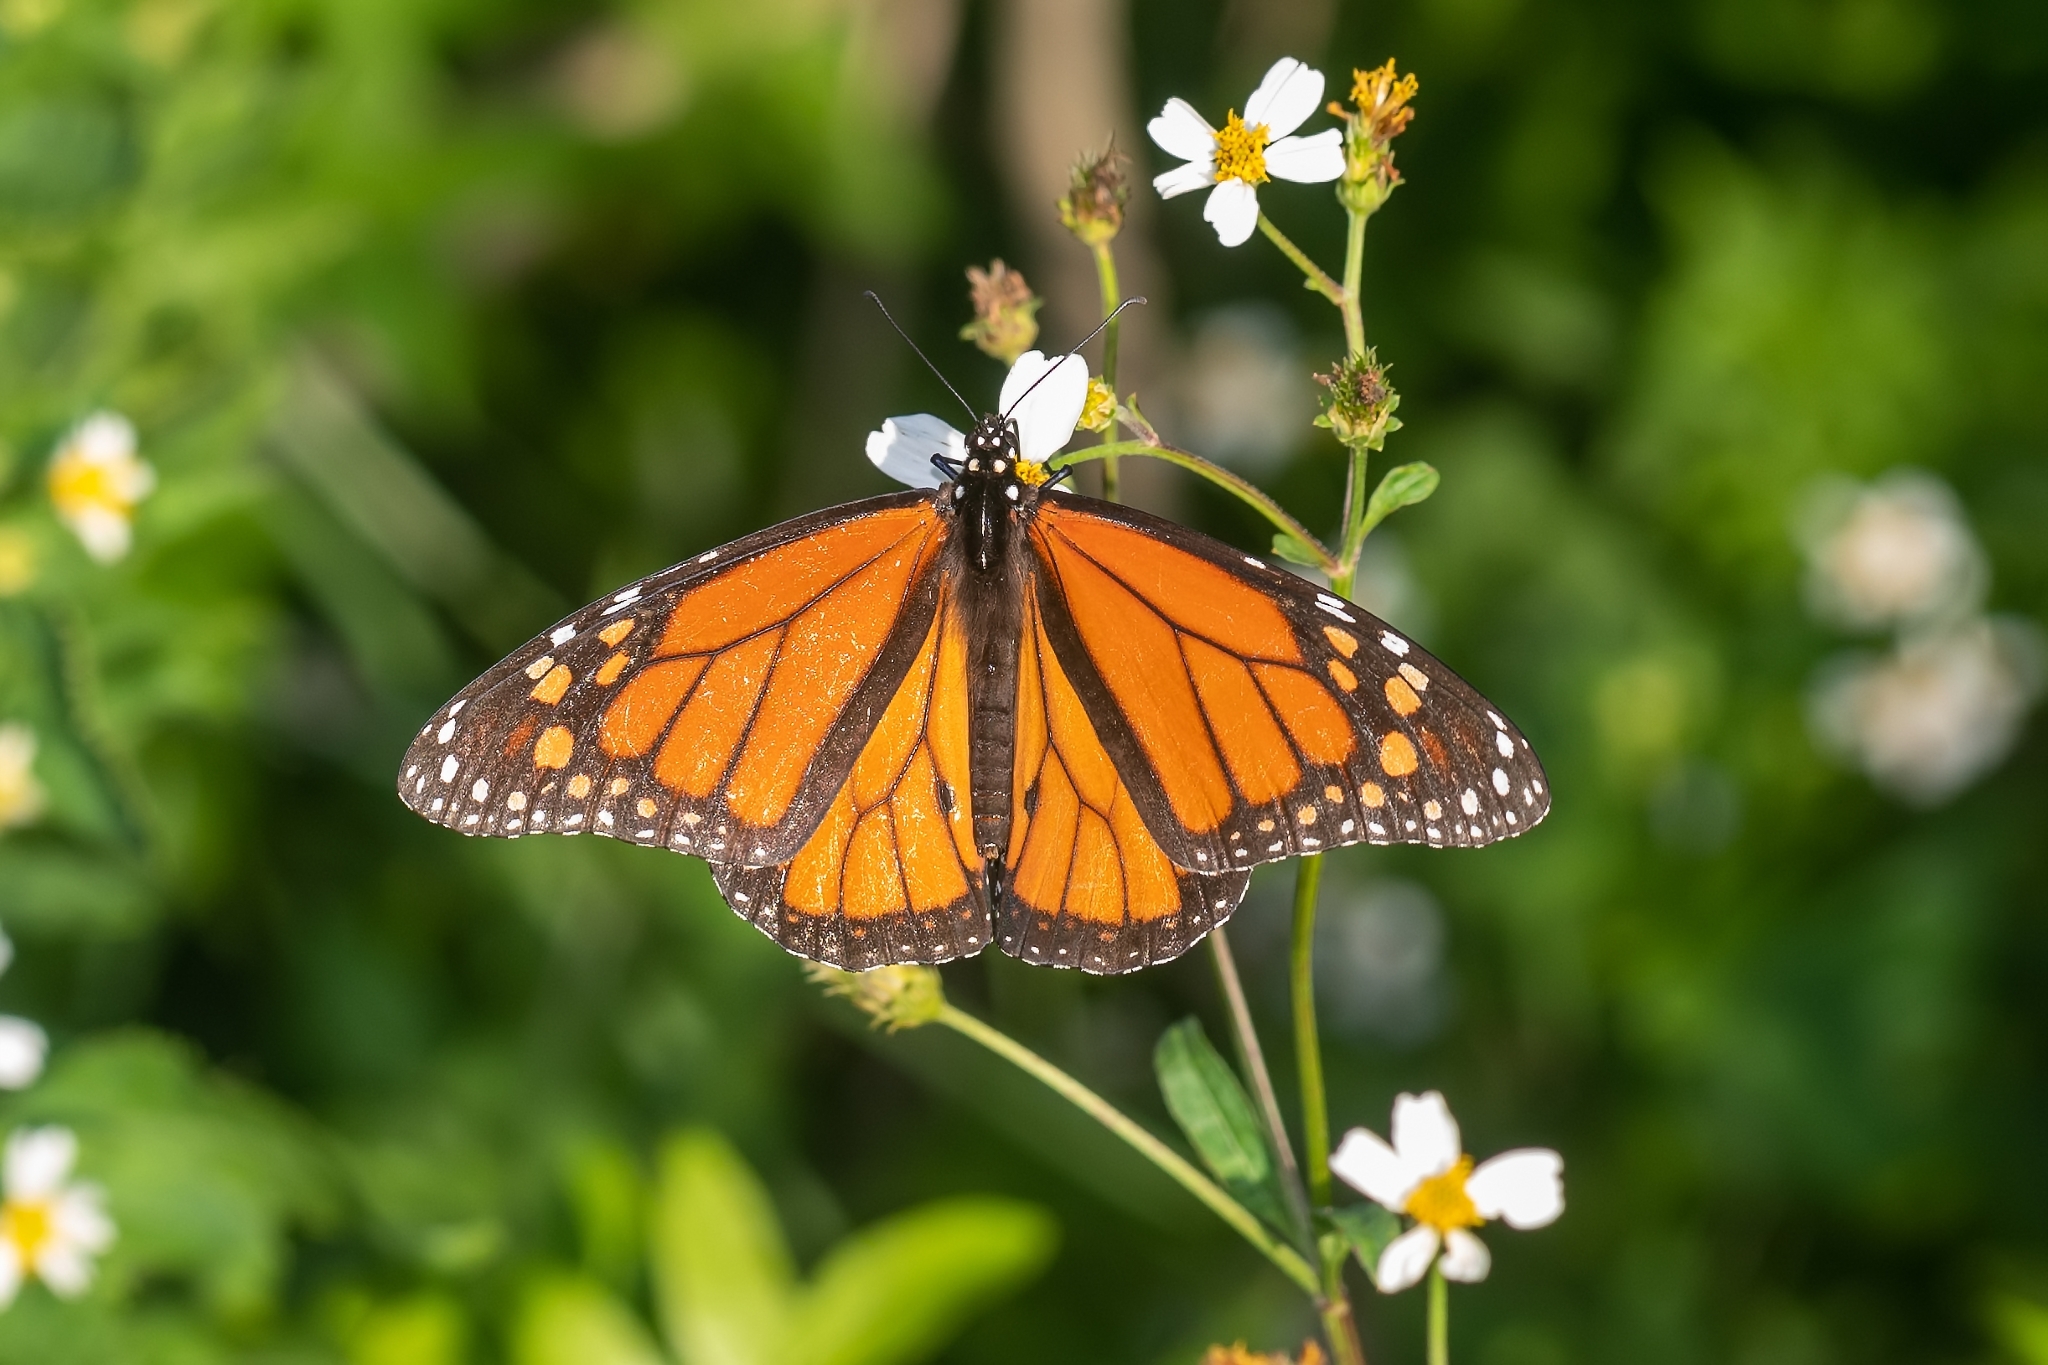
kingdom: Animalia
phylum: Arthropoda
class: Insecta
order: Lepidoptera
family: Nymphalidae
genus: Danaus
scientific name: Danaus plexippus
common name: Monarch
